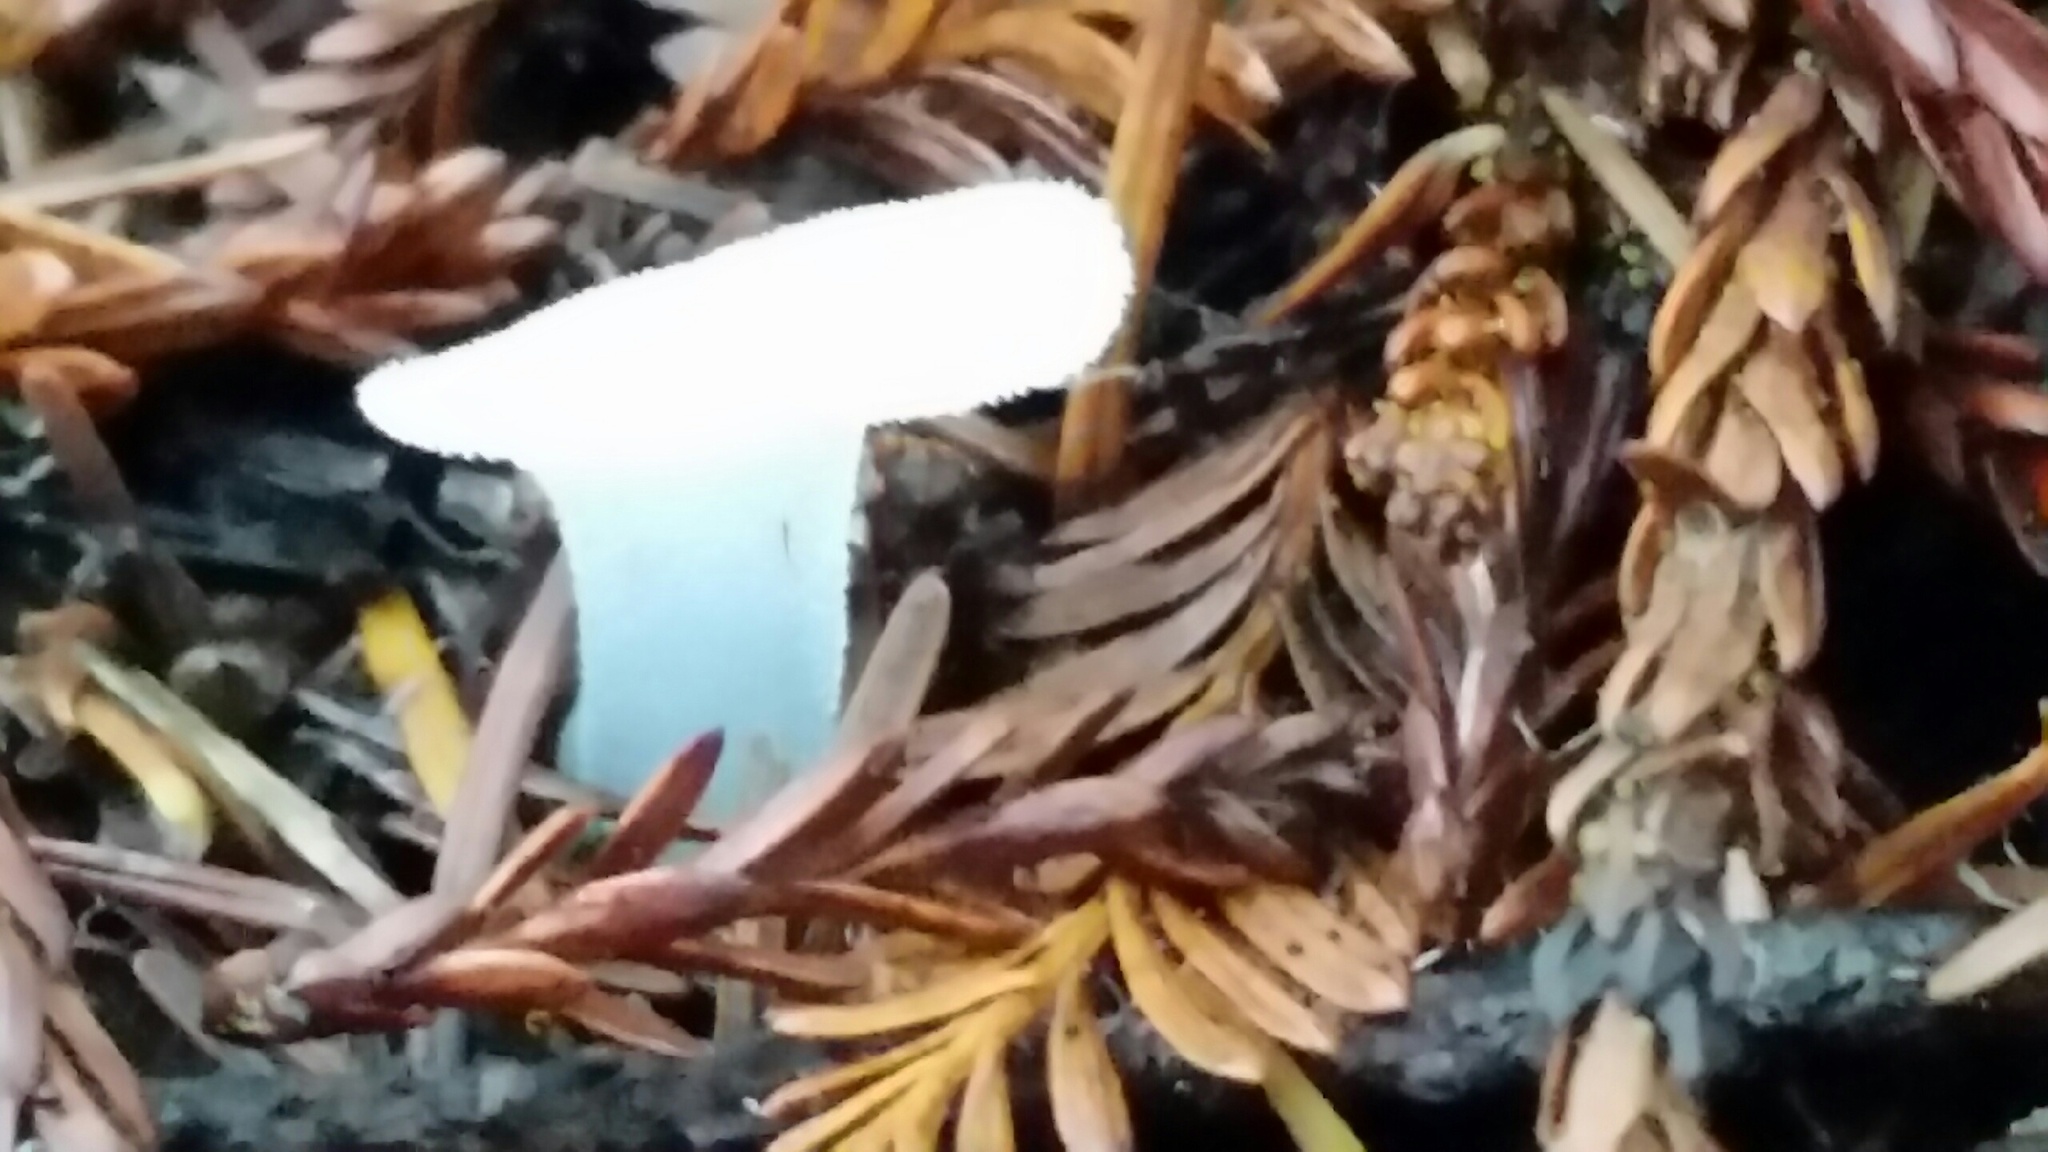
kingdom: Fungi
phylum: Basidiomycota
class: Agaricomycetes
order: Auriculariales
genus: Pseudohydnum
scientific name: Pseudohydnum gelatinosum
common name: Jelly tongue
